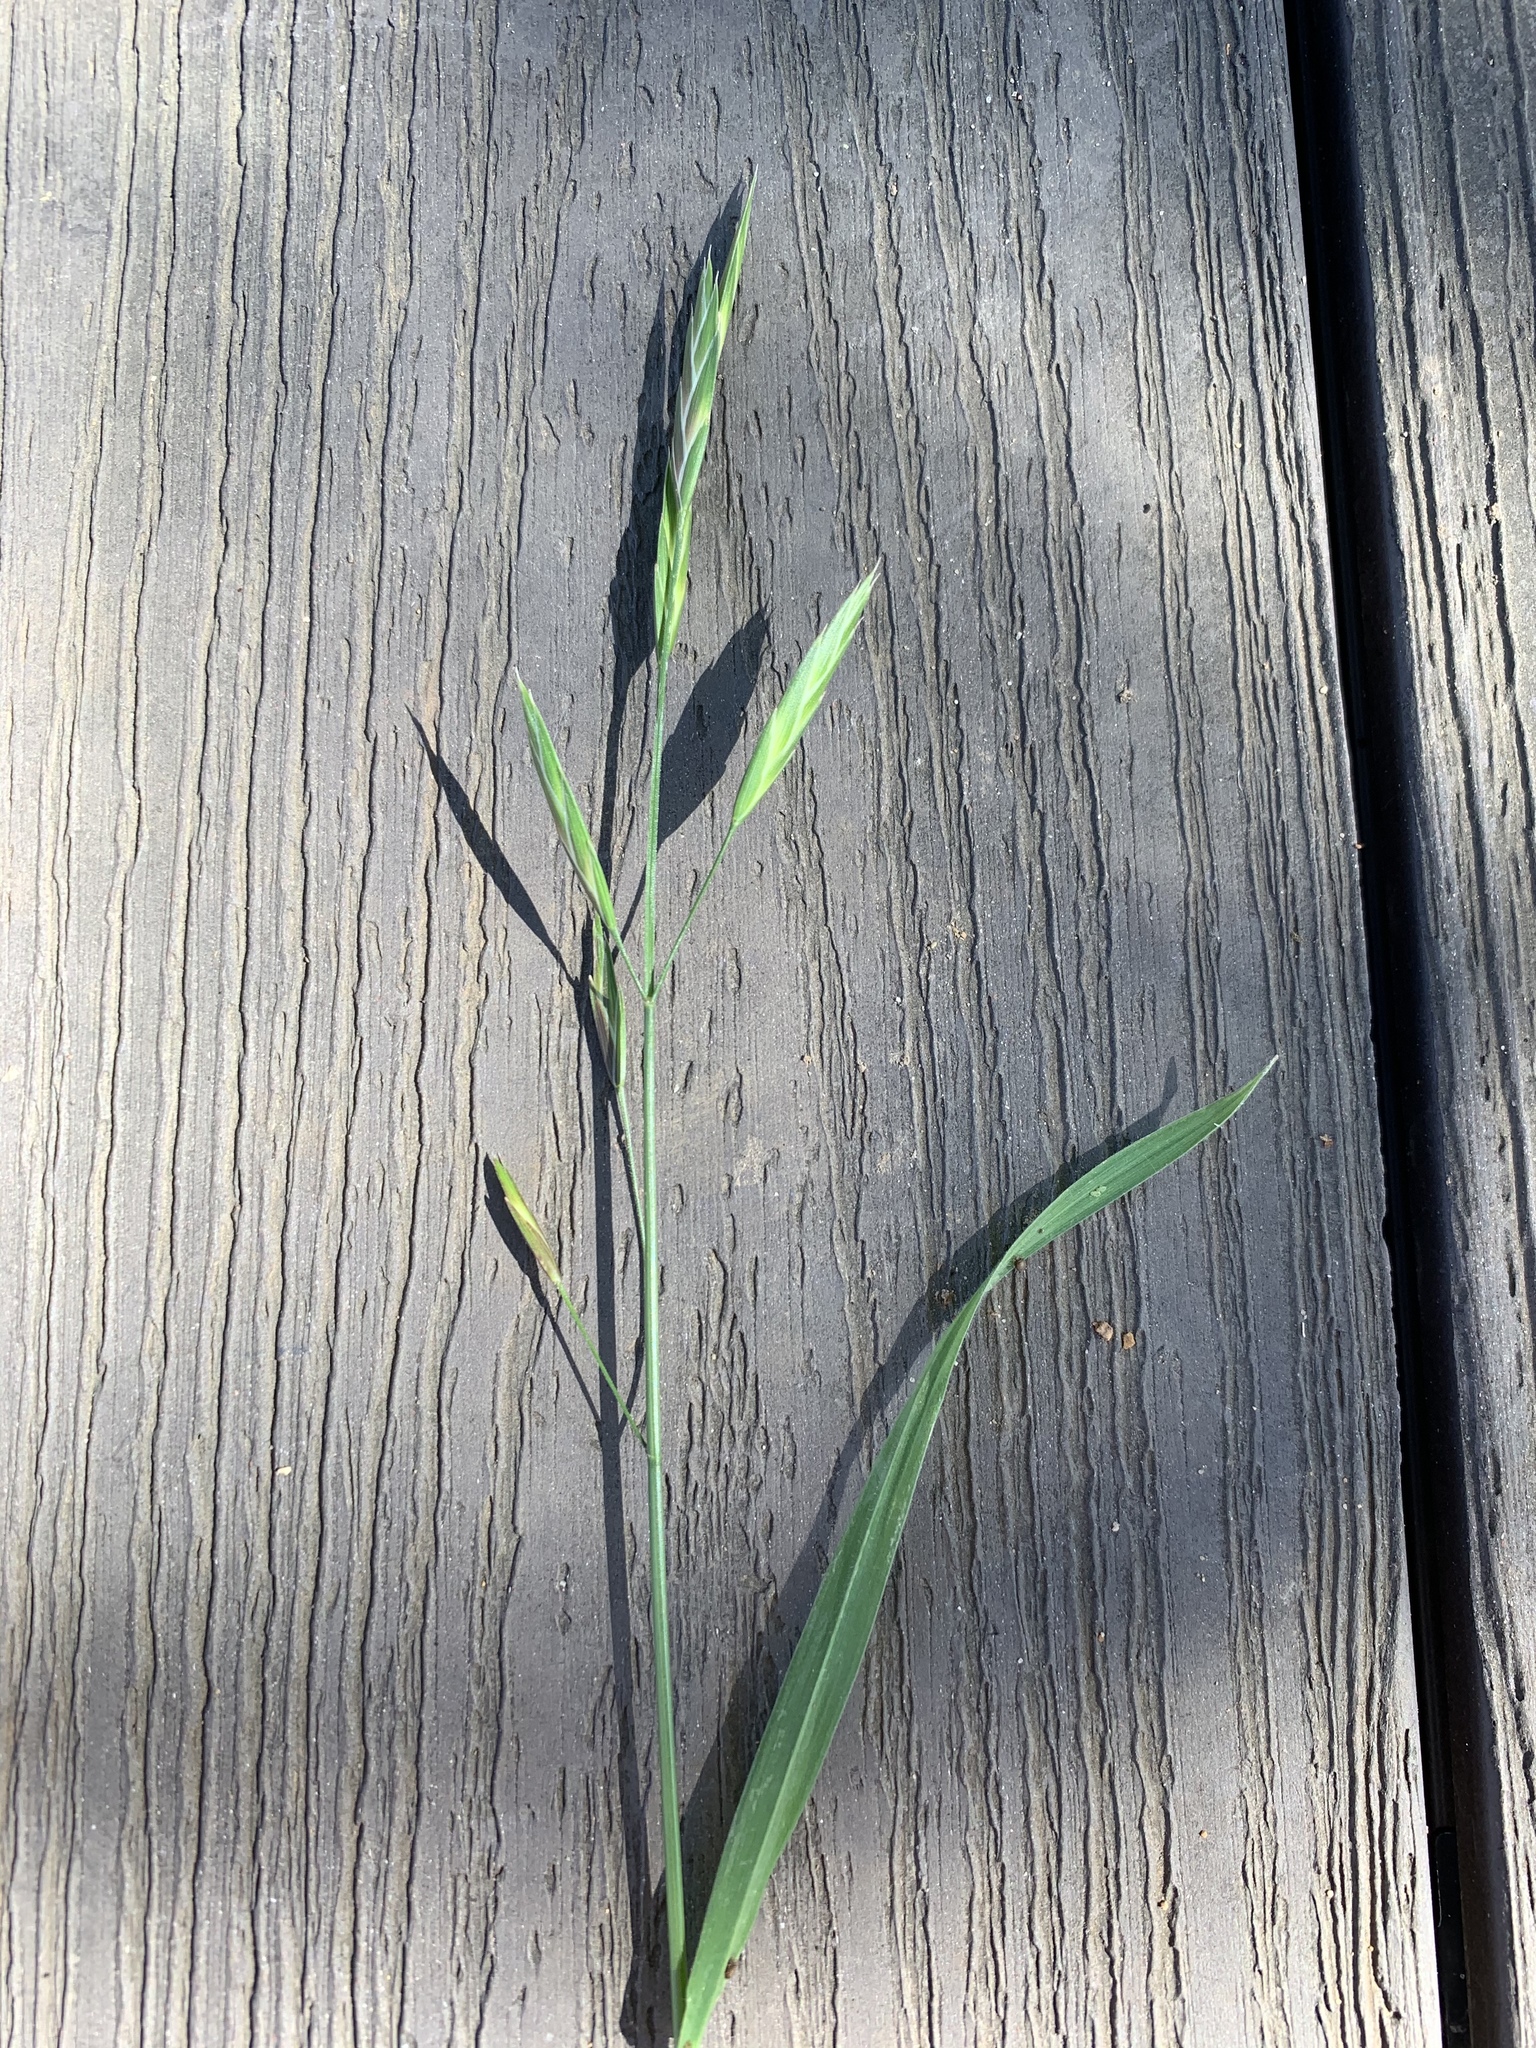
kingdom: Plantae
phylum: Tracheophyta
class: Liliopsida
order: Poales
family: Poaceae
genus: Bromus
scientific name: Bromus catharticus
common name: Rescuegrass
